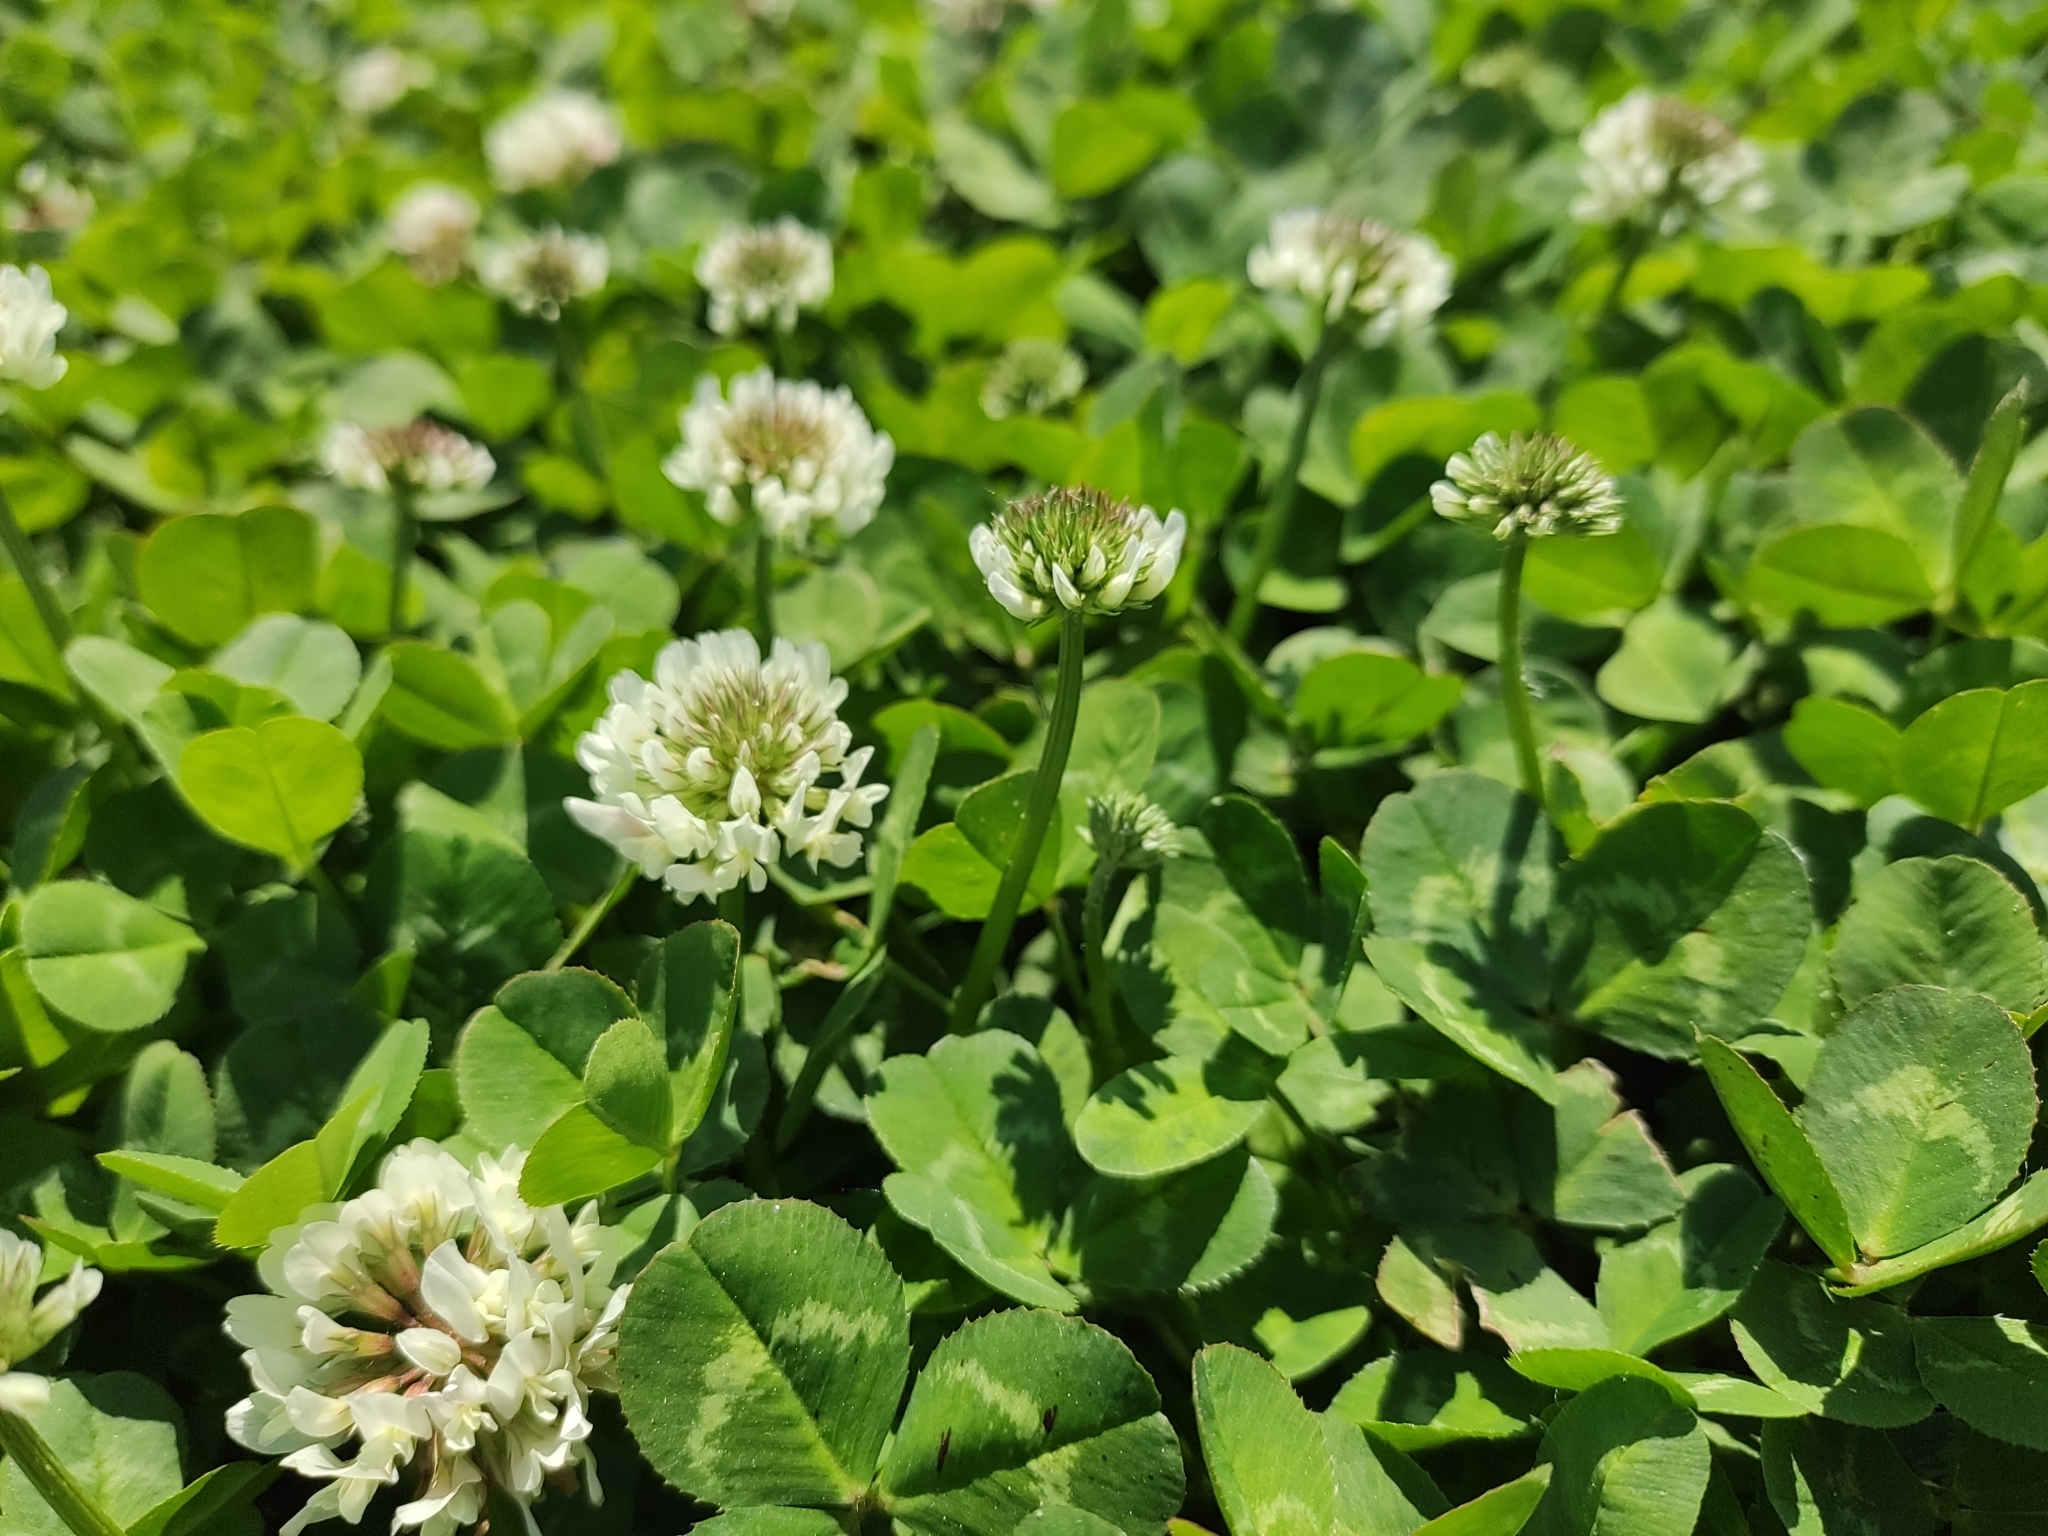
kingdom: Plantae
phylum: Tracheophyta
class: Magnoliopsida
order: Fabales
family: Fabaceae
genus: Trifolium
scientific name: Trifolium repens
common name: White clover
